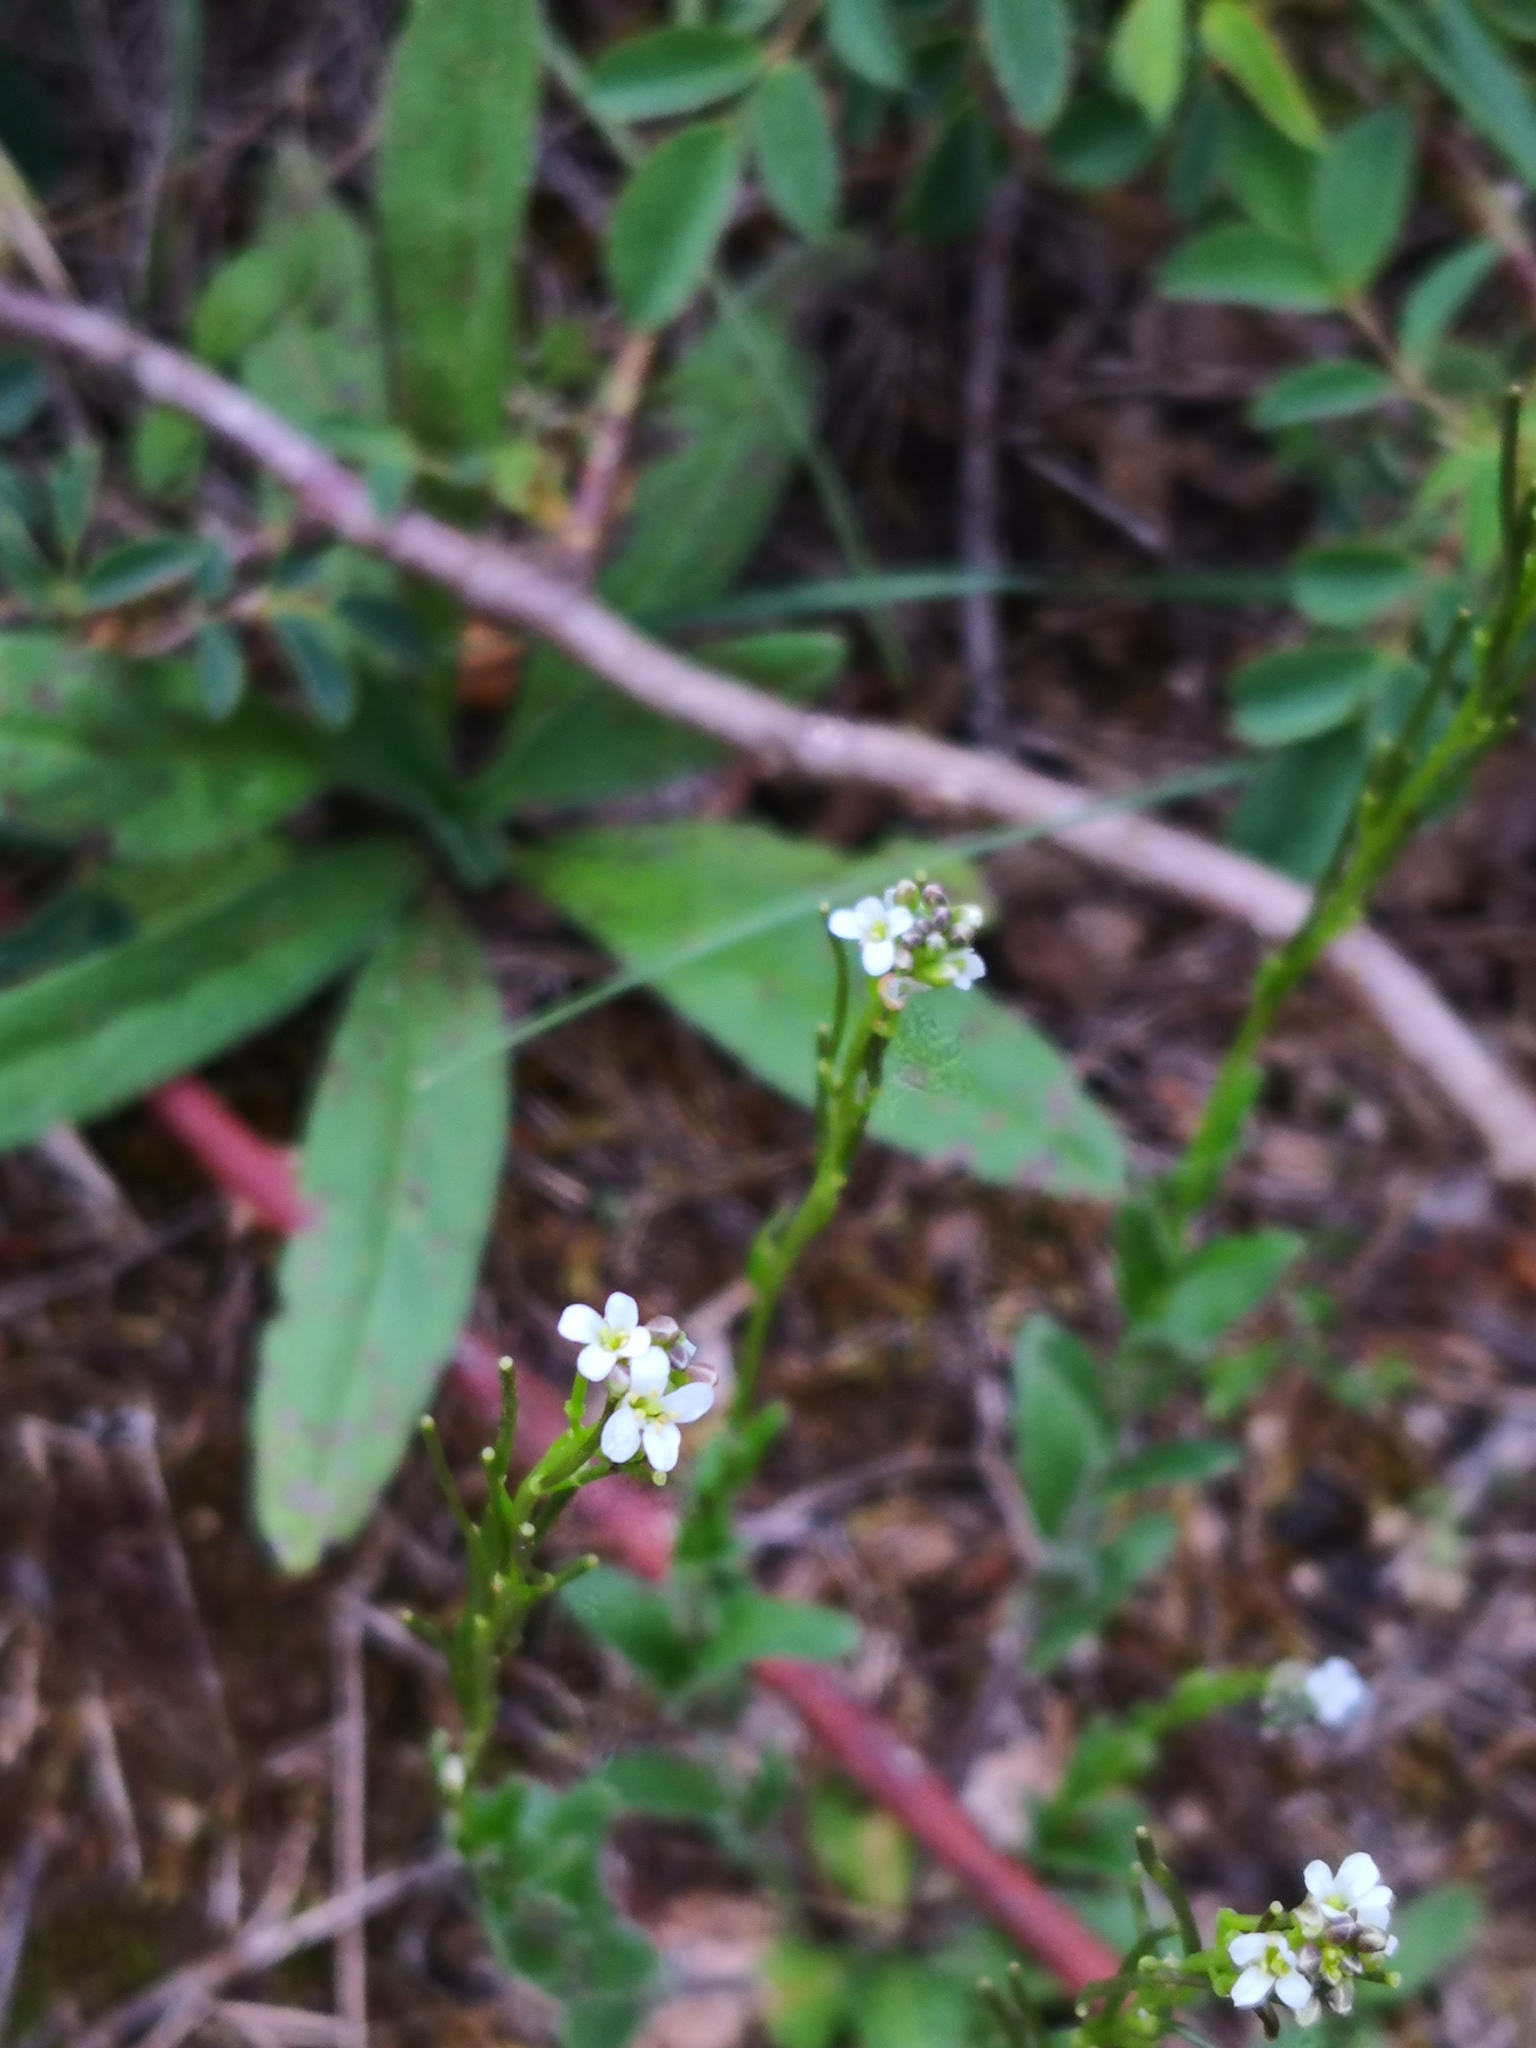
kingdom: Plantae
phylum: Tracheophyta
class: Magnoliopsida
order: Brassicales
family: Brassicaceae
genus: Arabis
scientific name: Arabis hirsuta
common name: Hairy rock-cress
